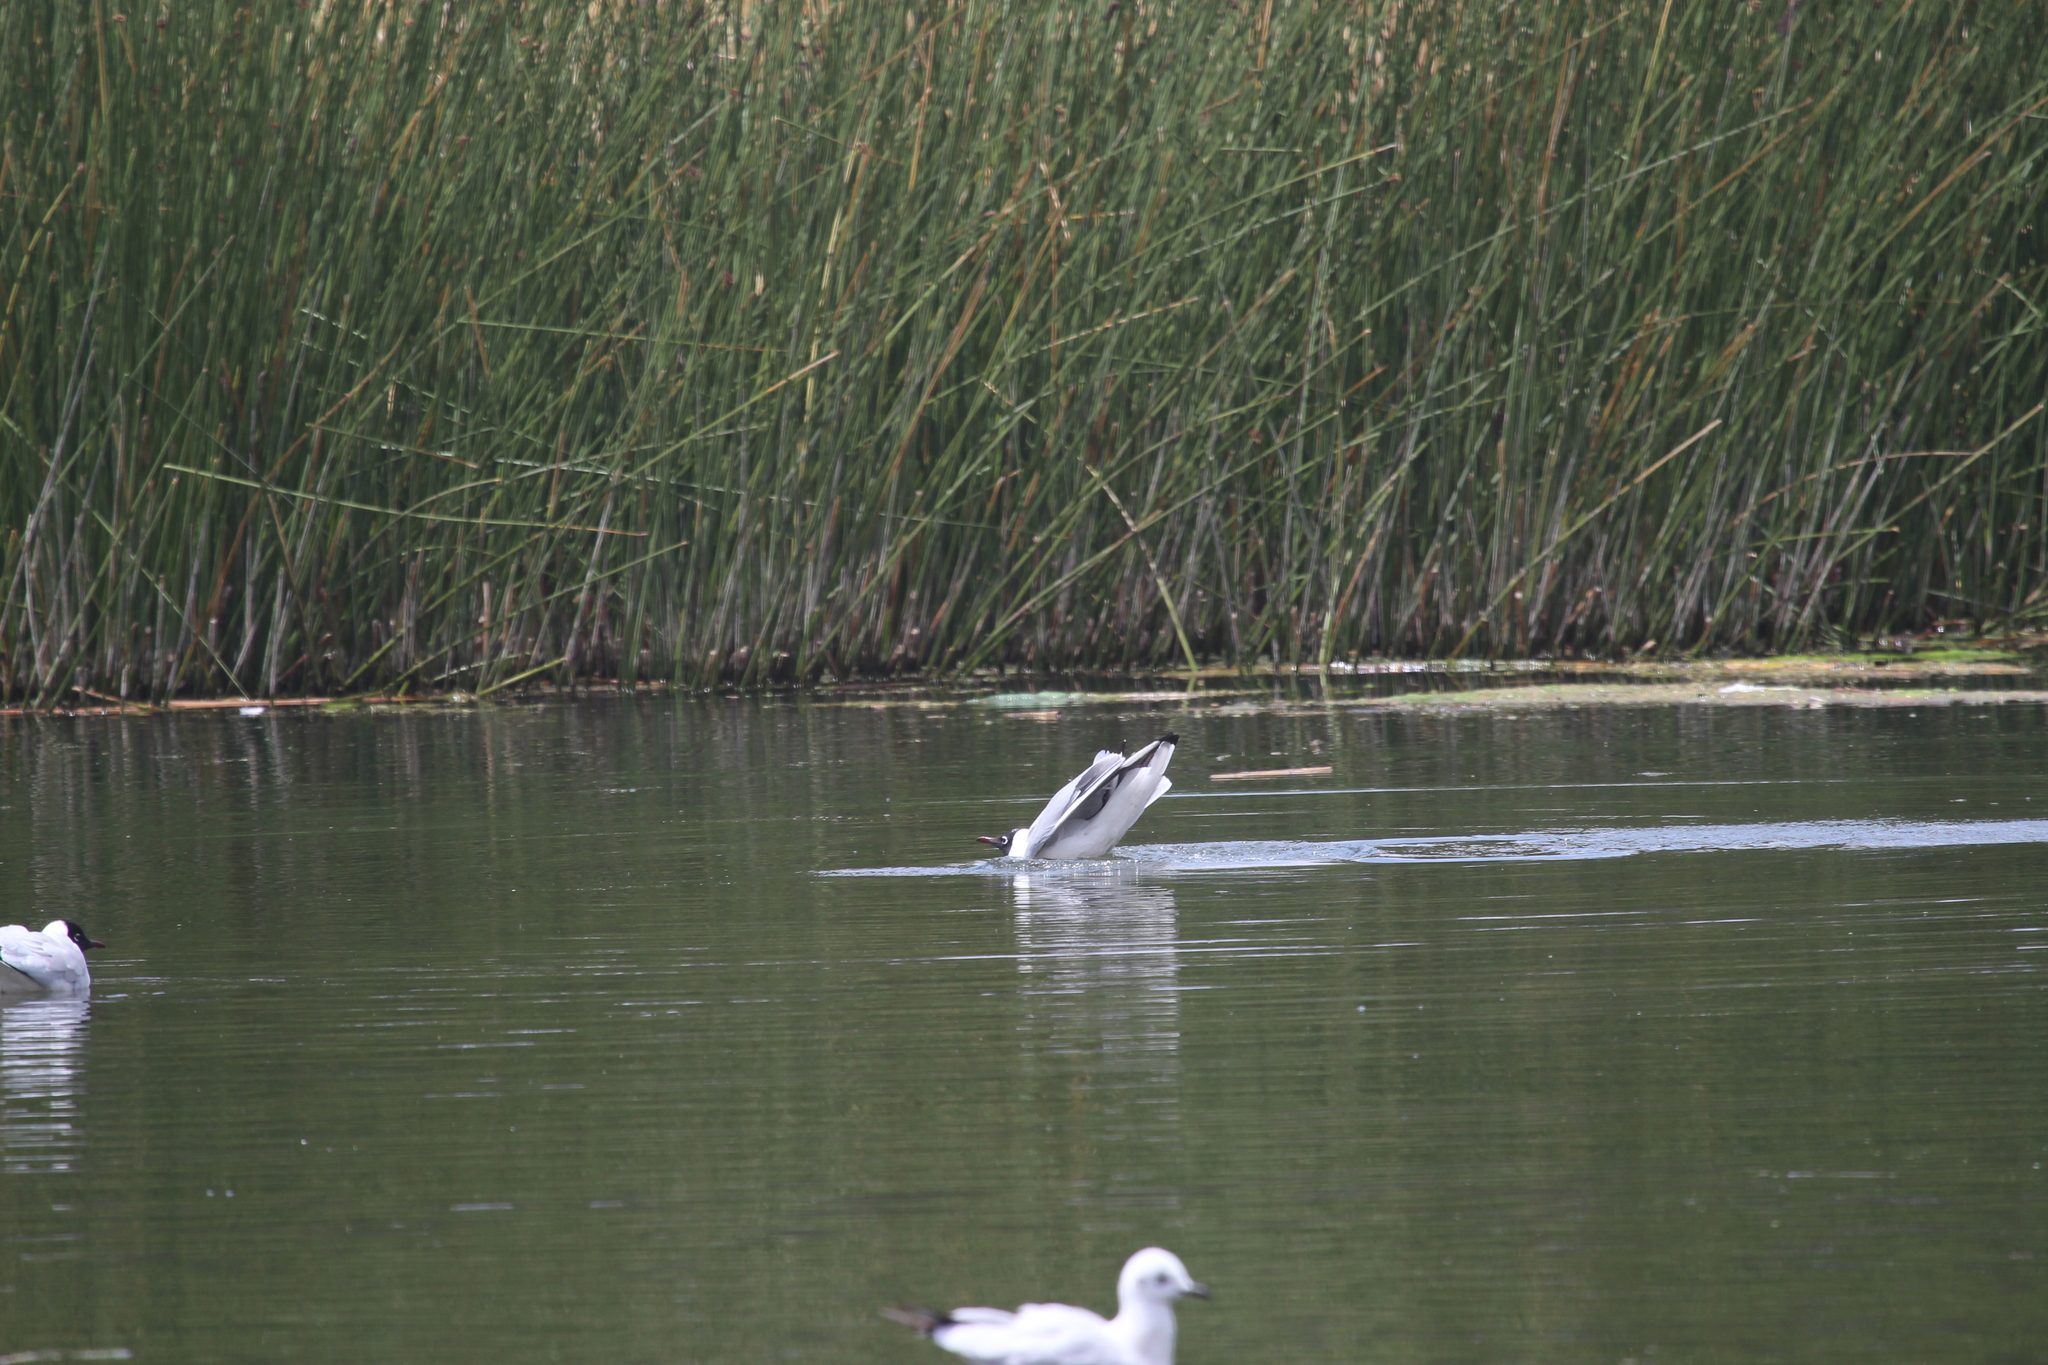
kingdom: Animalia
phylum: Chordata
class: Aves
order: Charadriiformes
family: Laridae
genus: Chroicocephalus
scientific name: Chroicocephalus serranus
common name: Andean gull
